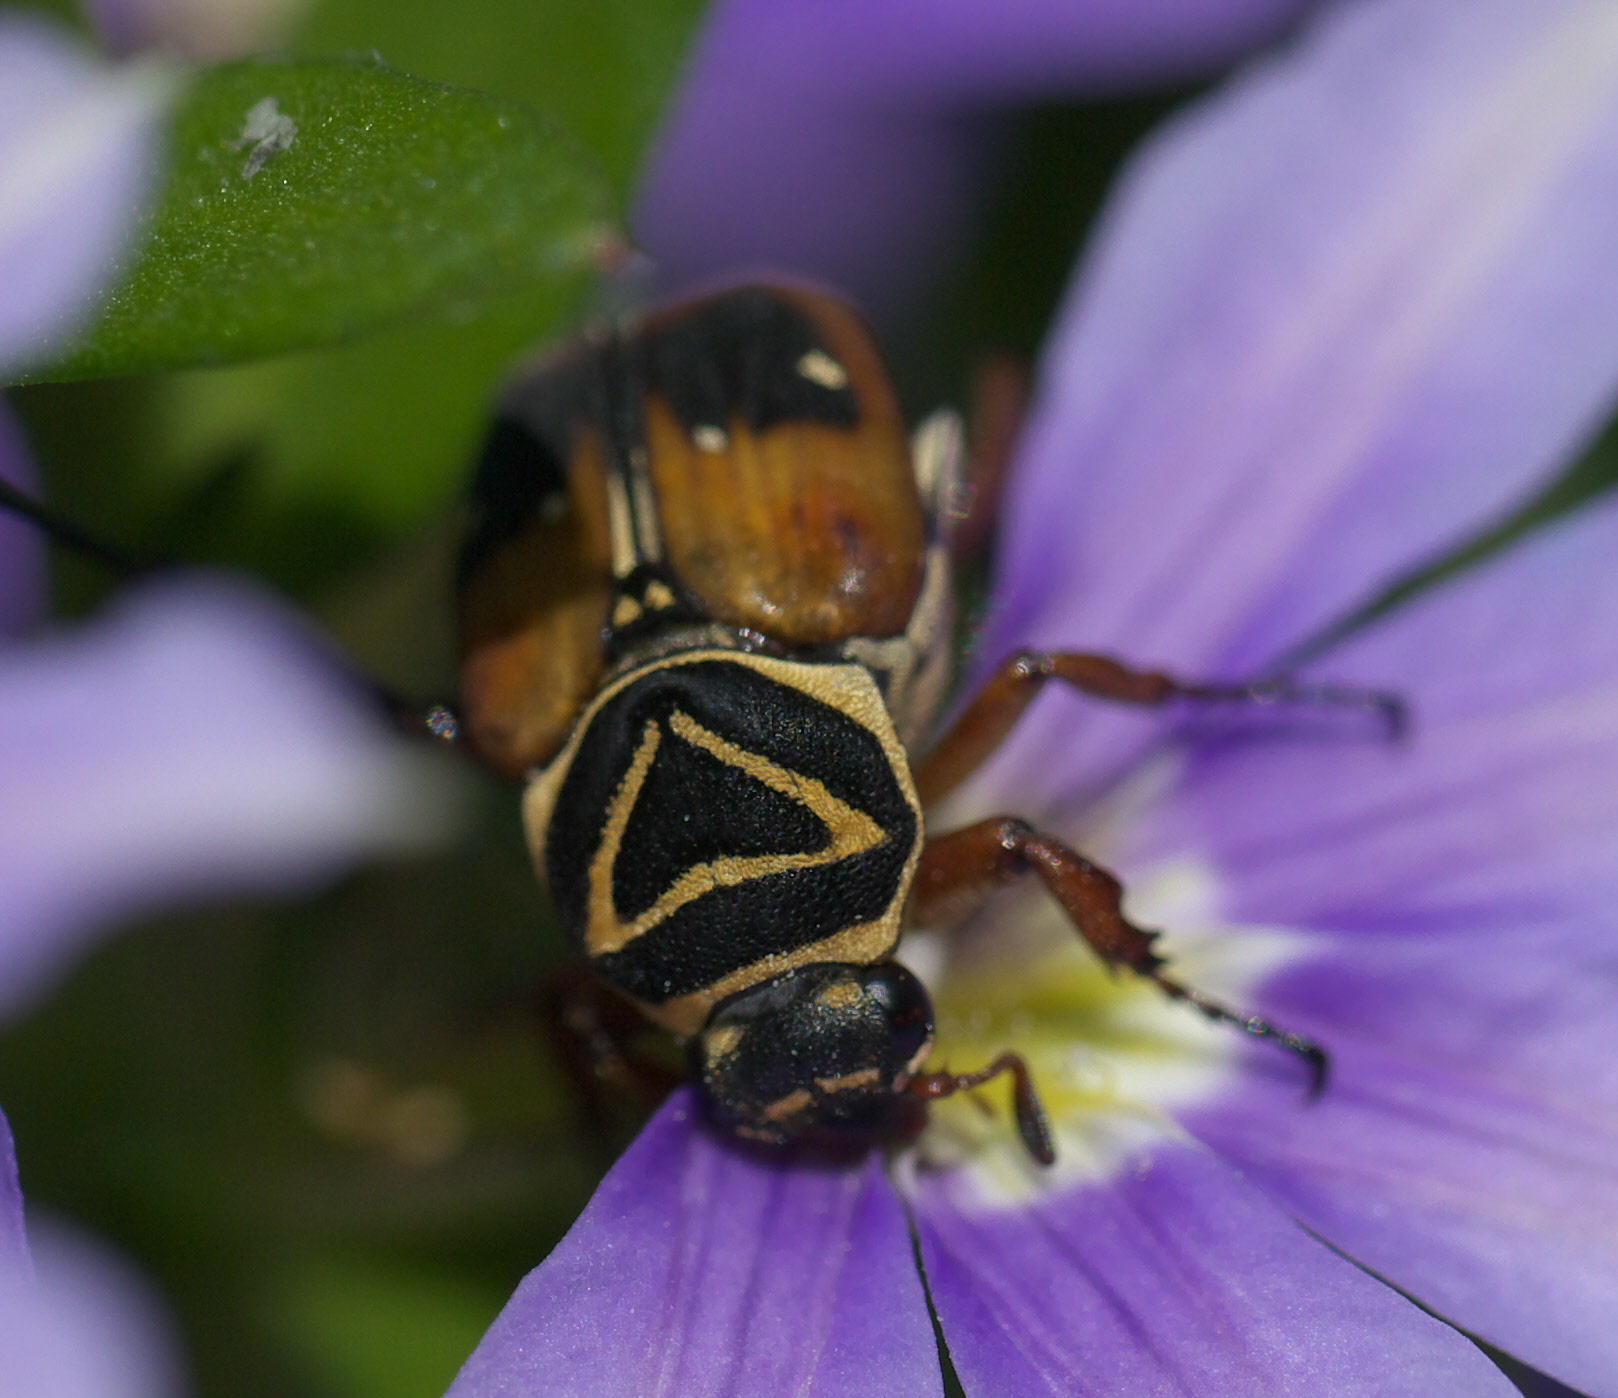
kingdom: Animalia
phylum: Arthropoda
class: Insecta
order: Coleoptera
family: Scarabaeidae
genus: Trigonopeltastes
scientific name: Trigonopeltastes delta
